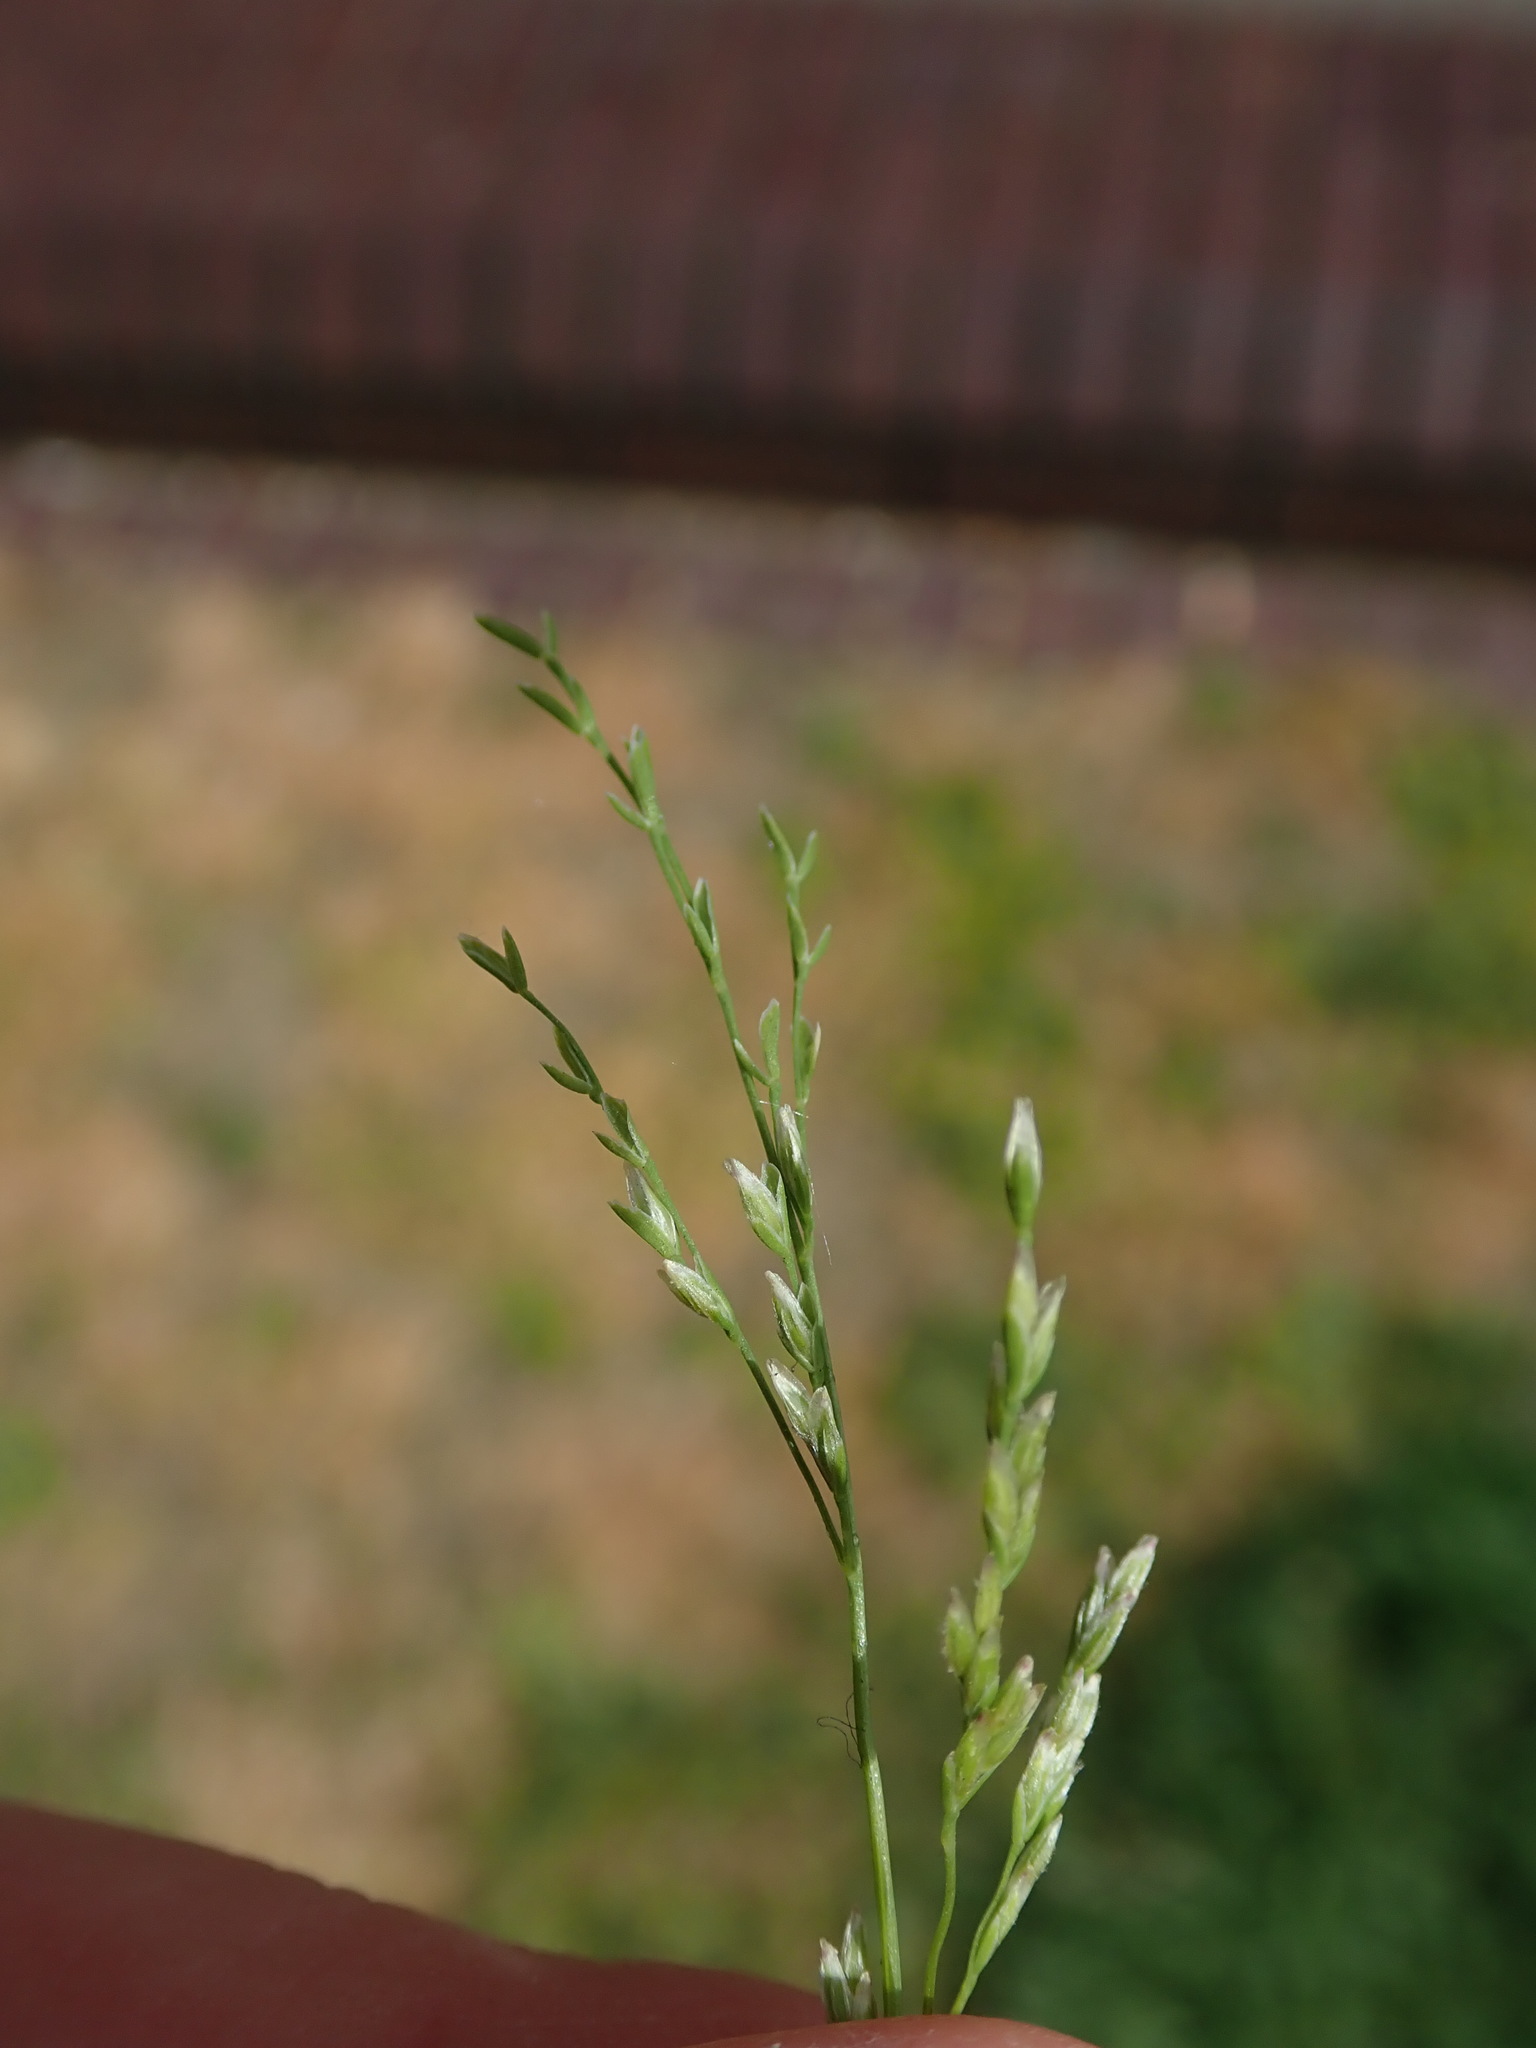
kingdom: Plantae
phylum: Tracheophyta
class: Liliopsida
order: Poales
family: Poaceae
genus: Poa
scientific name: Poa infirma
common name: Weak bluegrass
